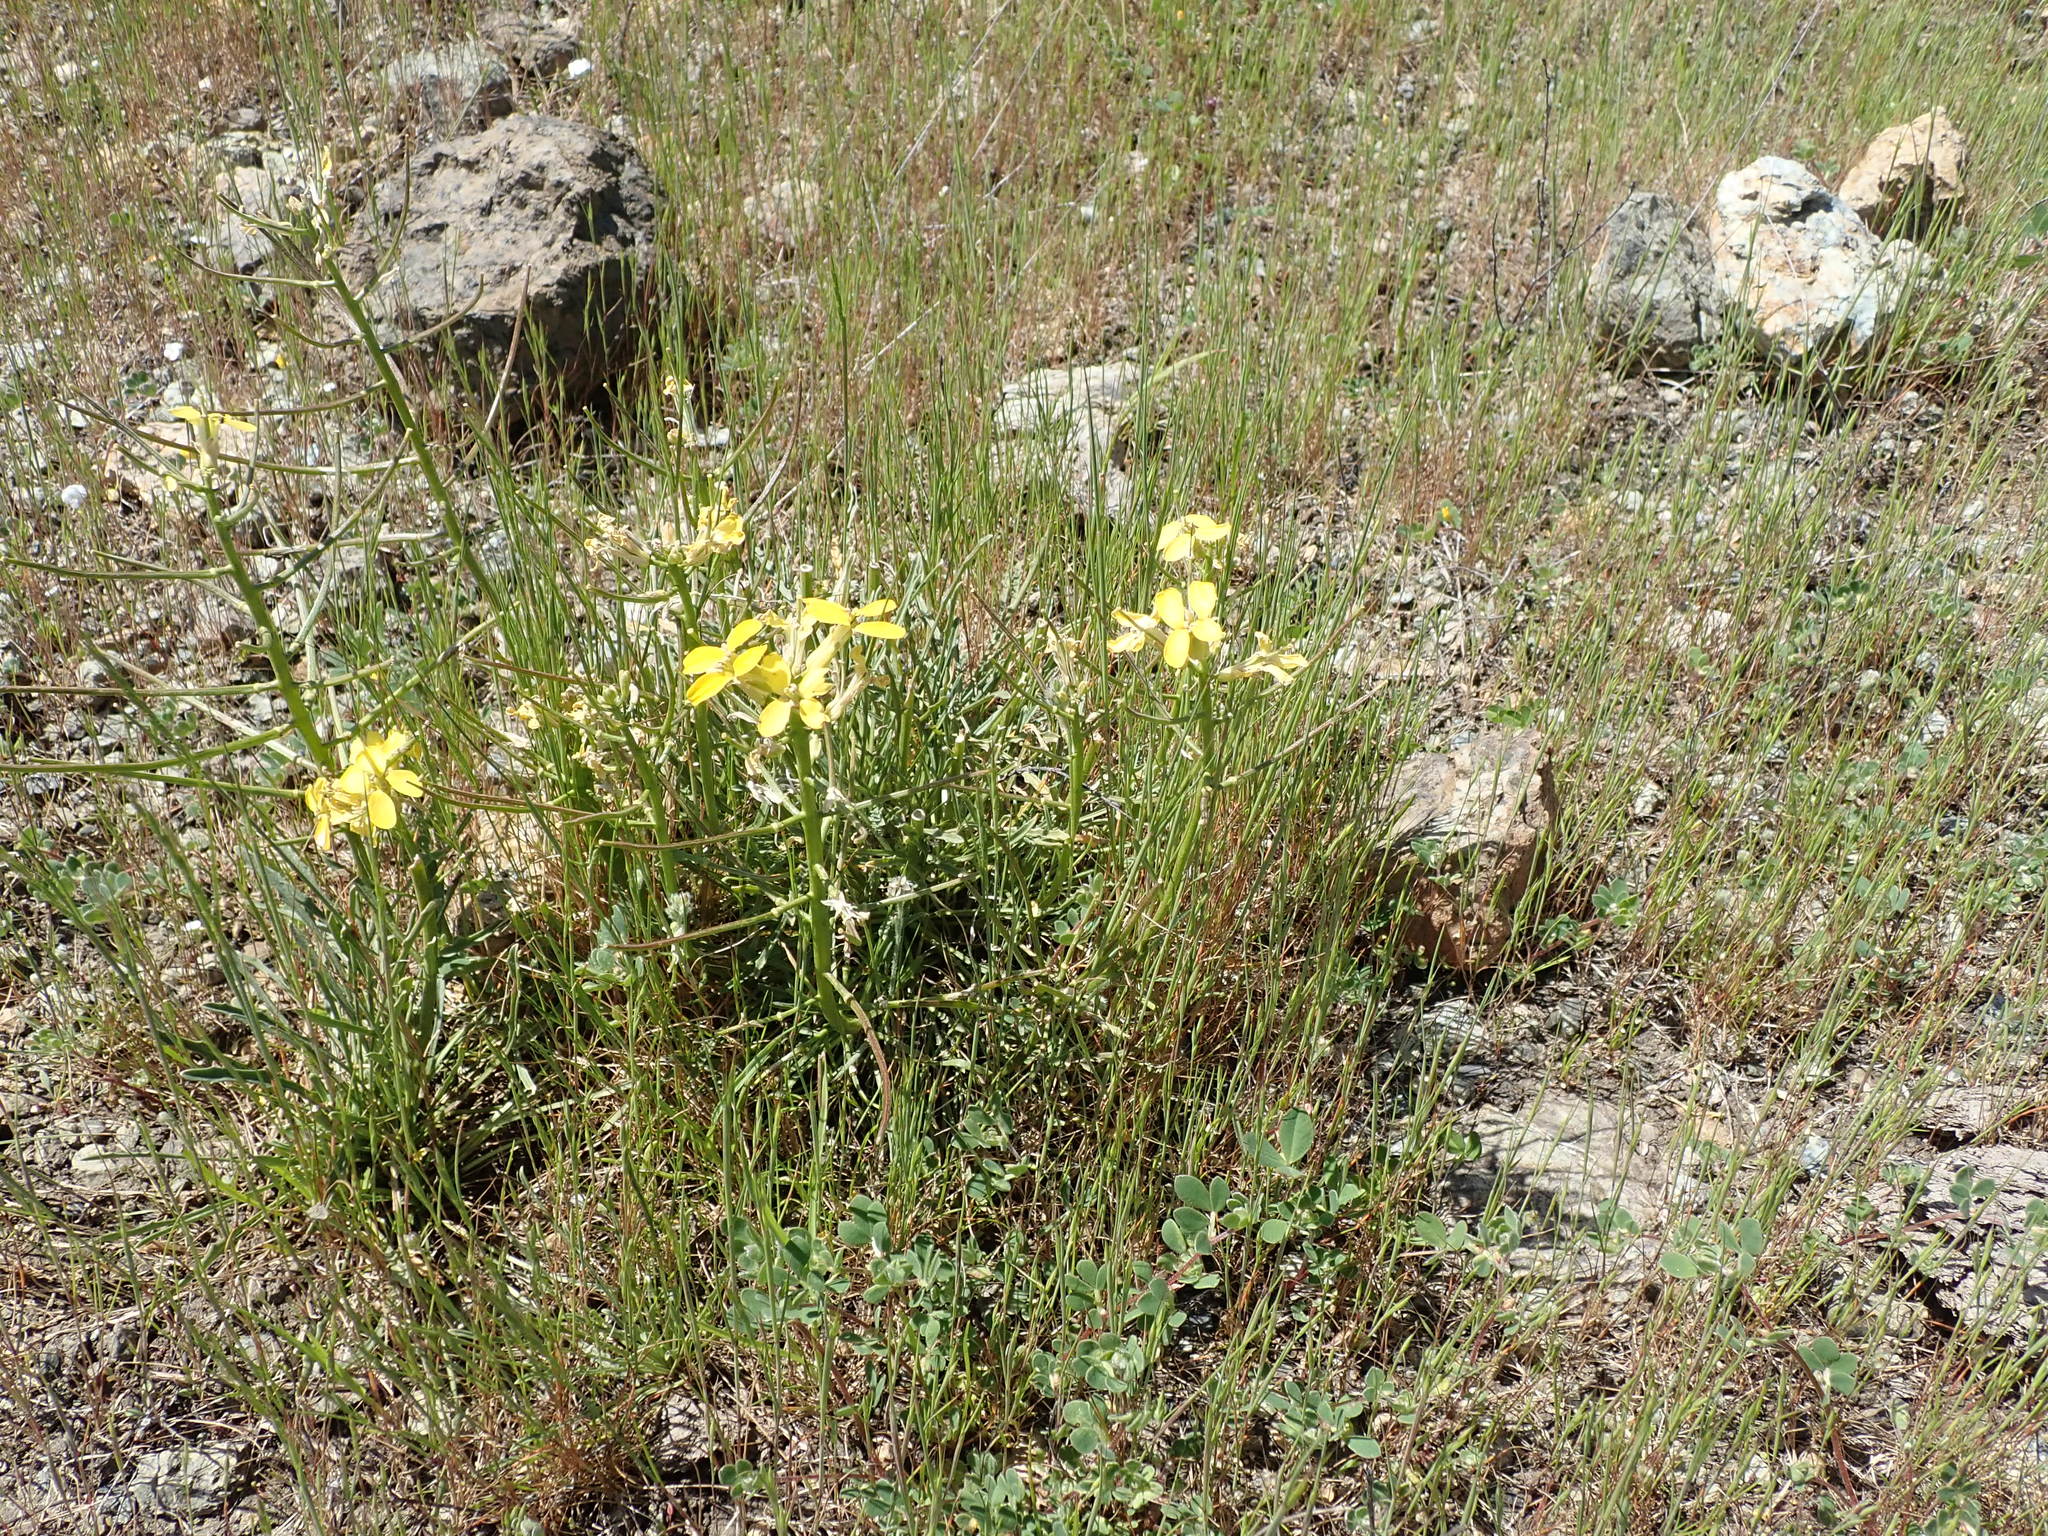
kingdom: Plantae
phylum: Tracheophyta
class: Magnoliopsida
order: Brassicales
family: Brassicaceae
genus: Erysimum
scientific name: Erysimum franciscanum
